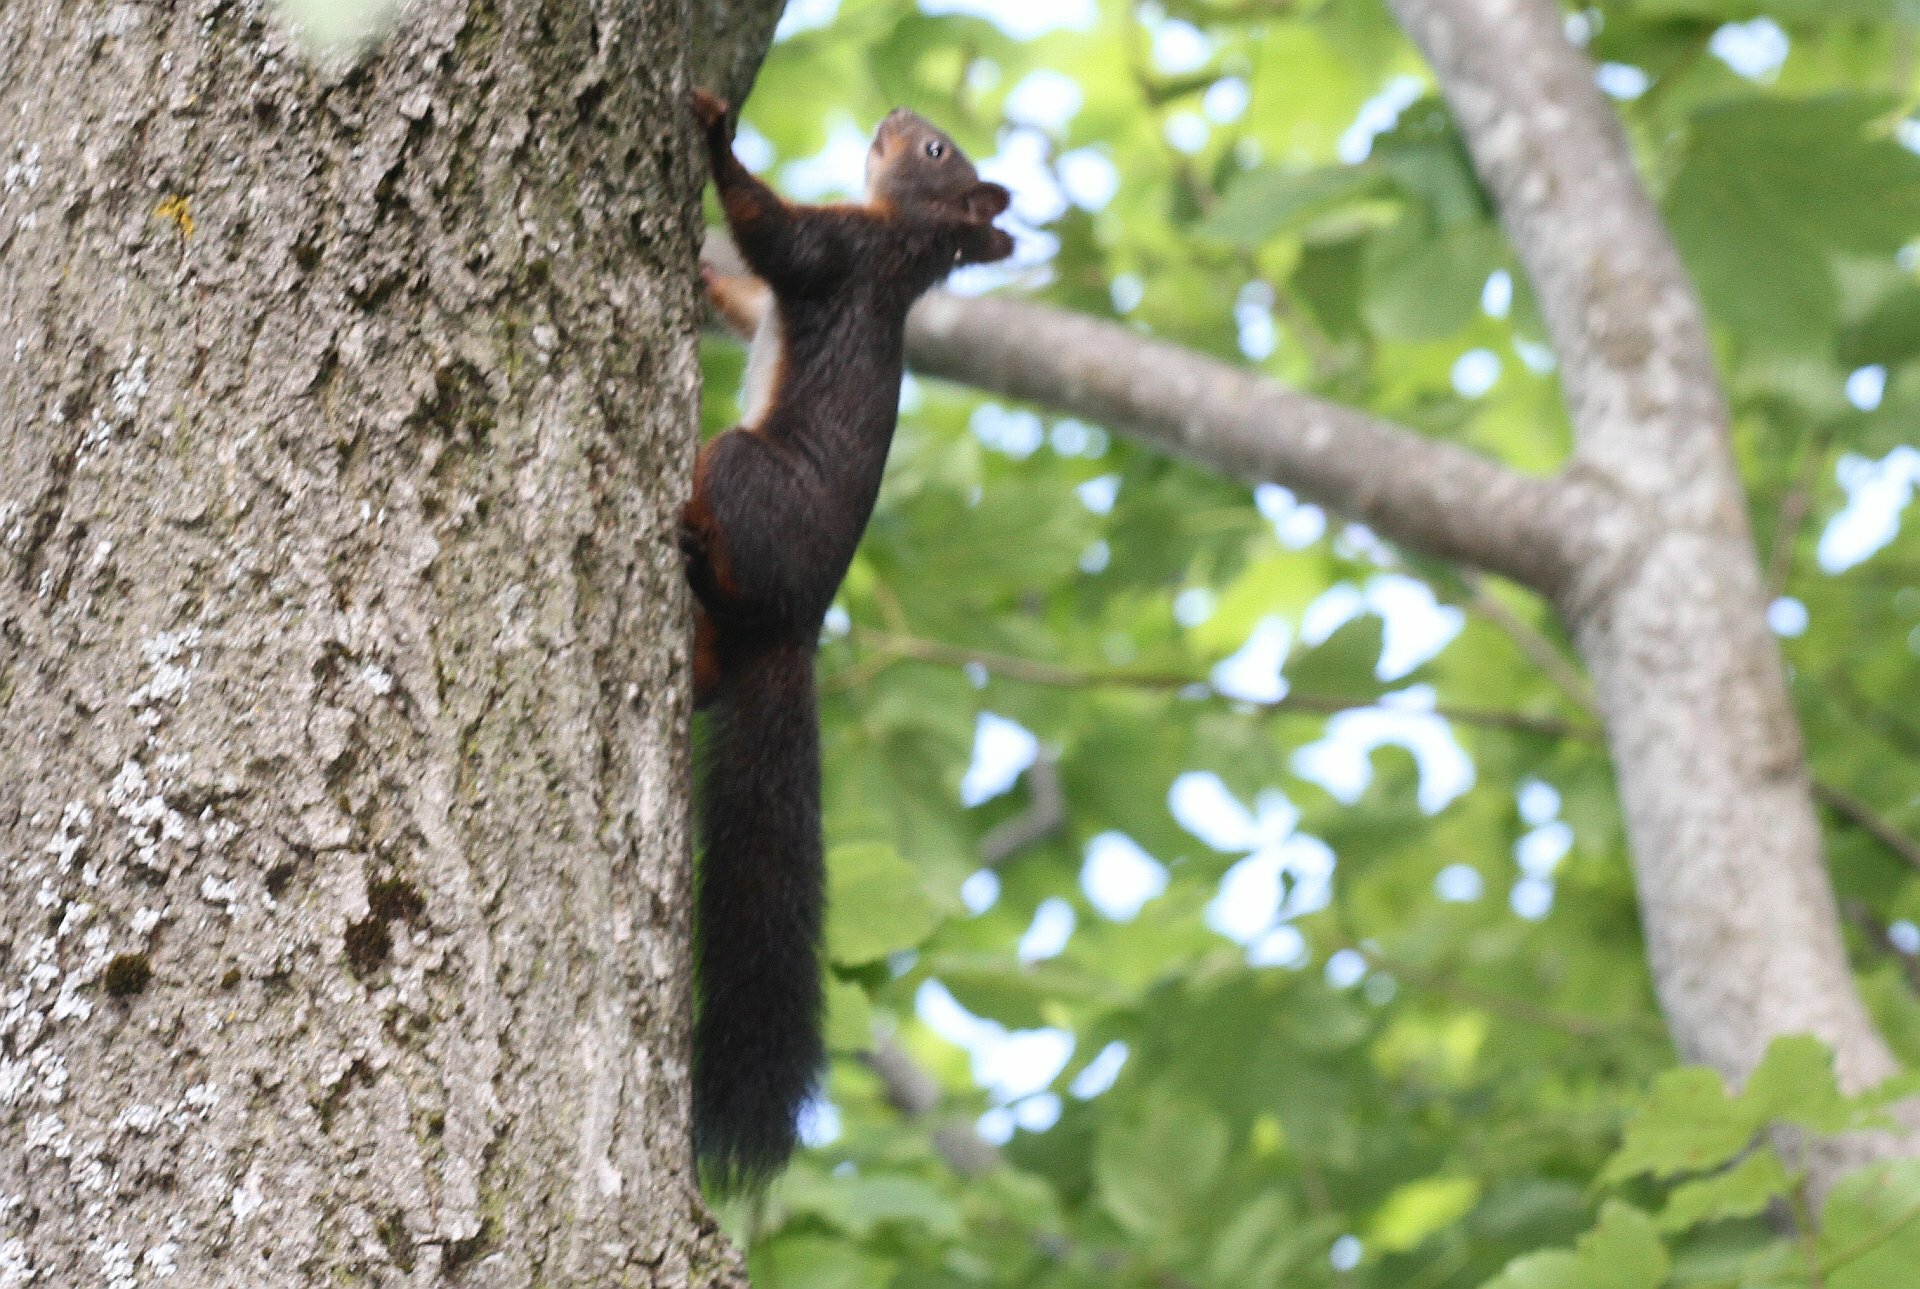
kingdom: Animalia
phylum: Chordata
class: Mammalia
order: Rodentia
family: Sciuridae
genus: Sciurus
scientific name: Sciurus vulgaris
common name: Eurasian red squirrel
